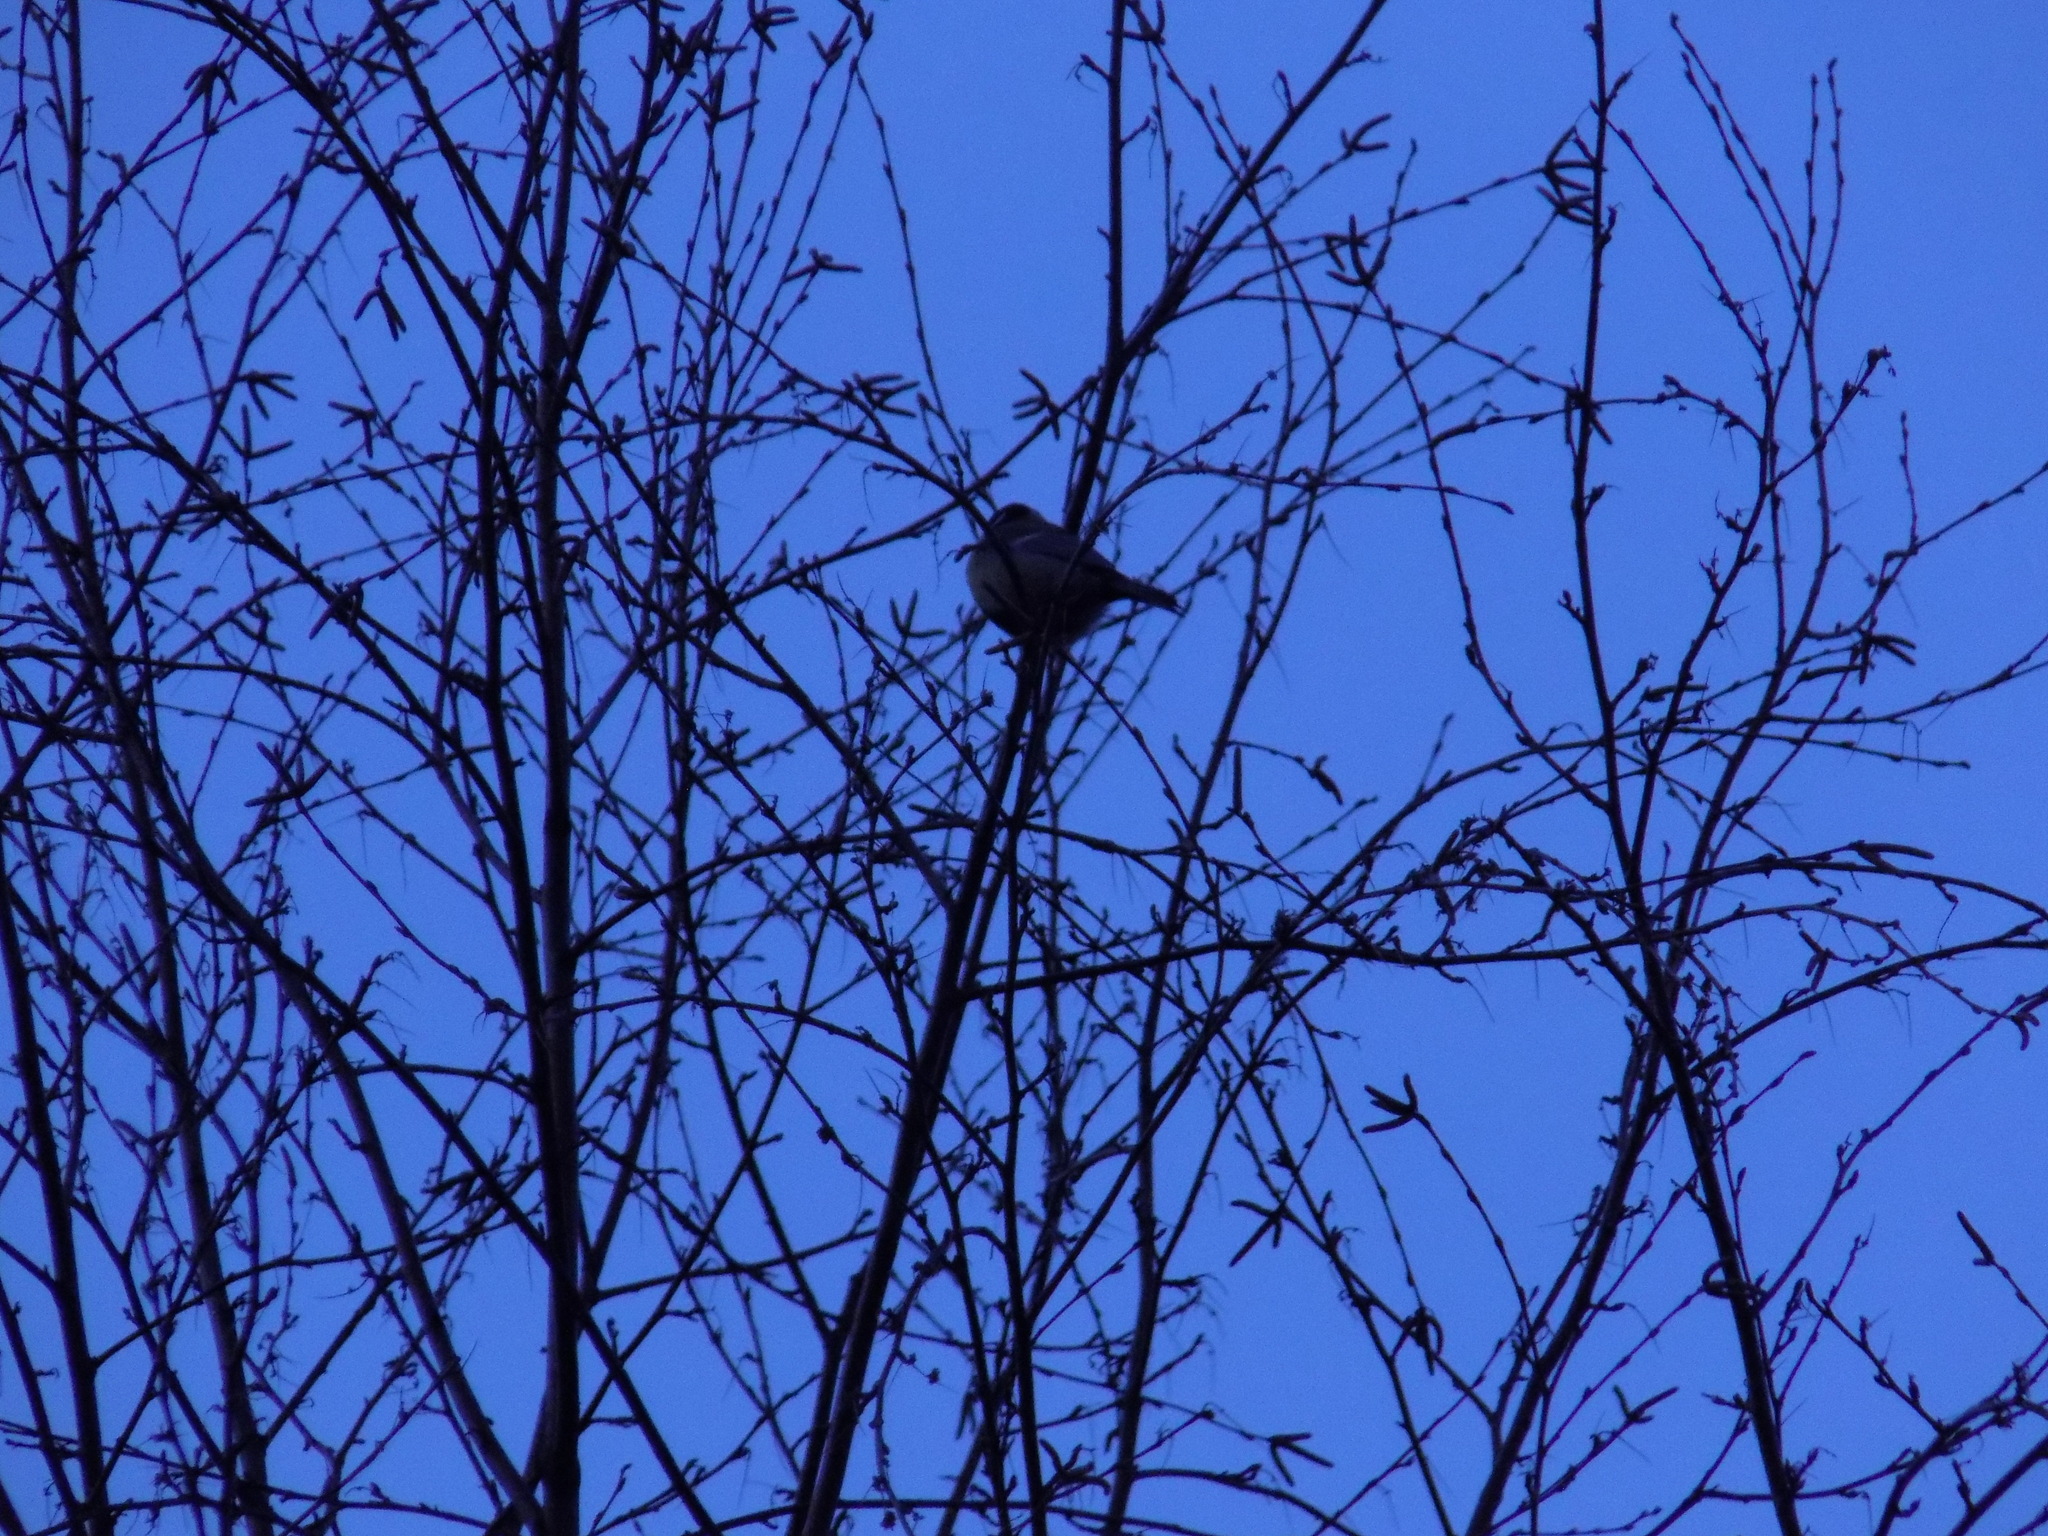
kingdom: Animalia
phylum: Chordata
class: Aves
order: Passeriformes
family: Paridae
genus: Parus
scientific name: Parus major
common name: Great tit
